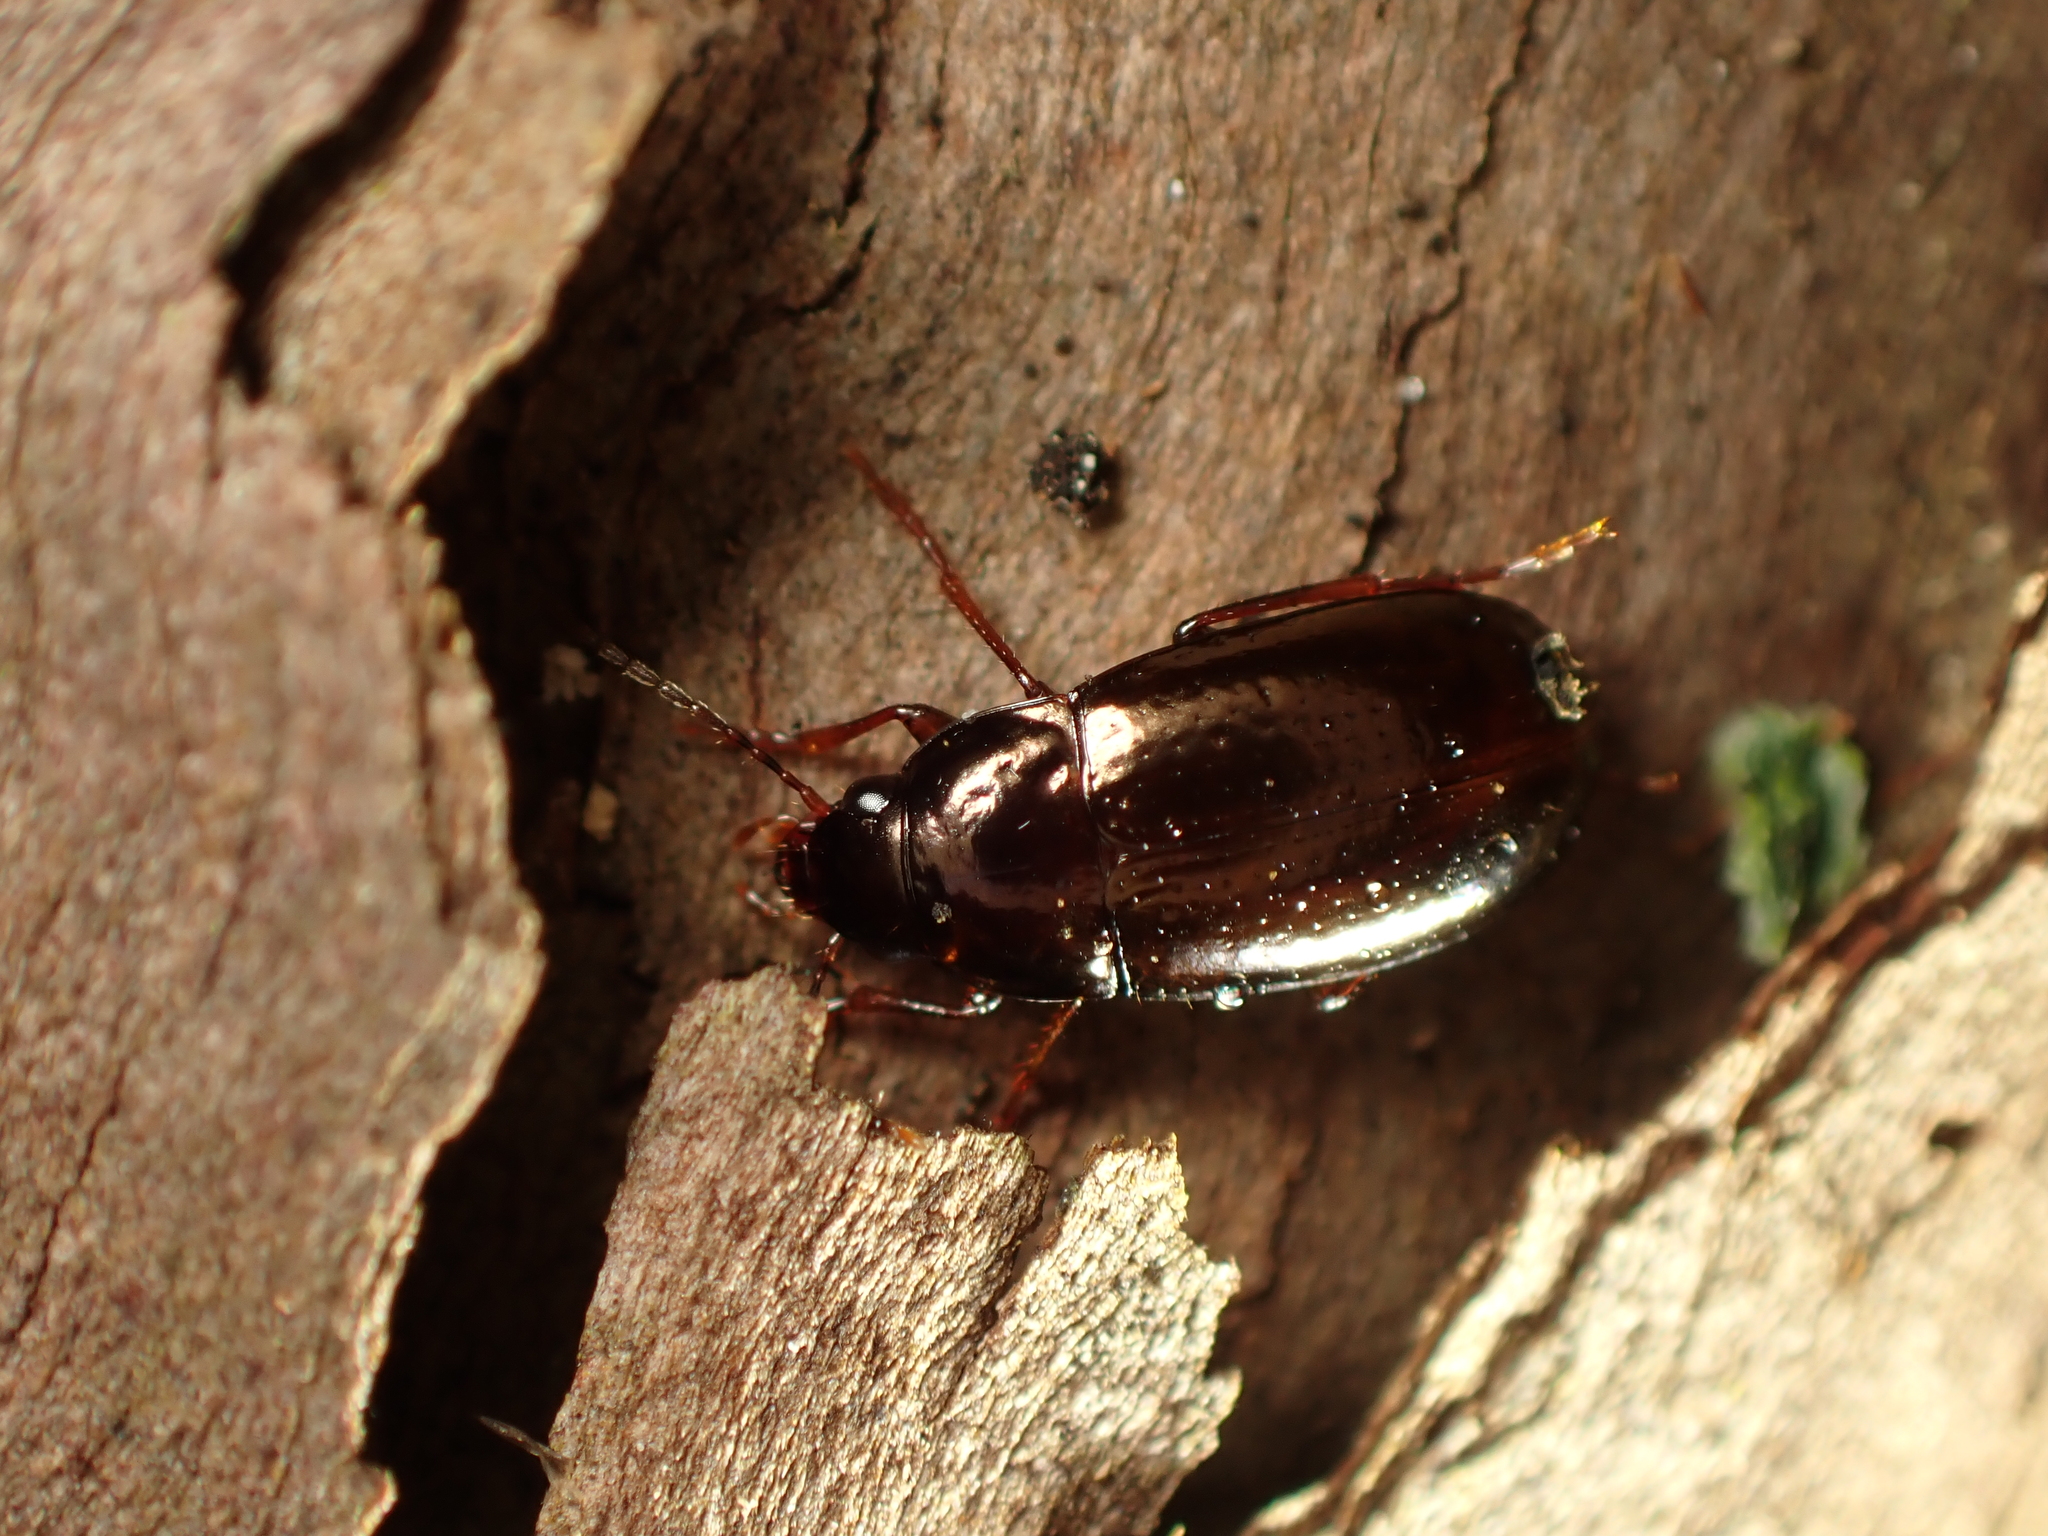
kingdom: Animalia
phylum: Arthropoda
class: Insecta
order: Coleoptera
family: Carabidae
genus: Amarotypus
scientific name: Amarotypus edwardsii
